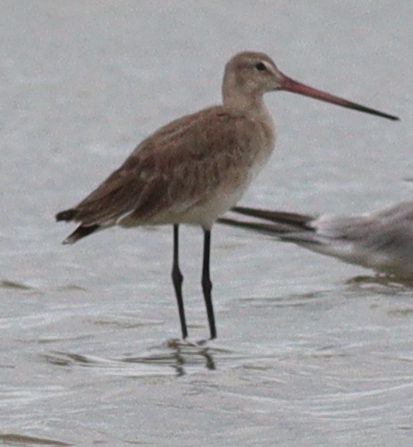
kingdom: Animalia
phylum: Chordata
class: Aves
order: Charadriiformes
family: Scolopacidae
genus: Limosa
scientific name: Limosa limosa
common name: Black-tailed godwit
